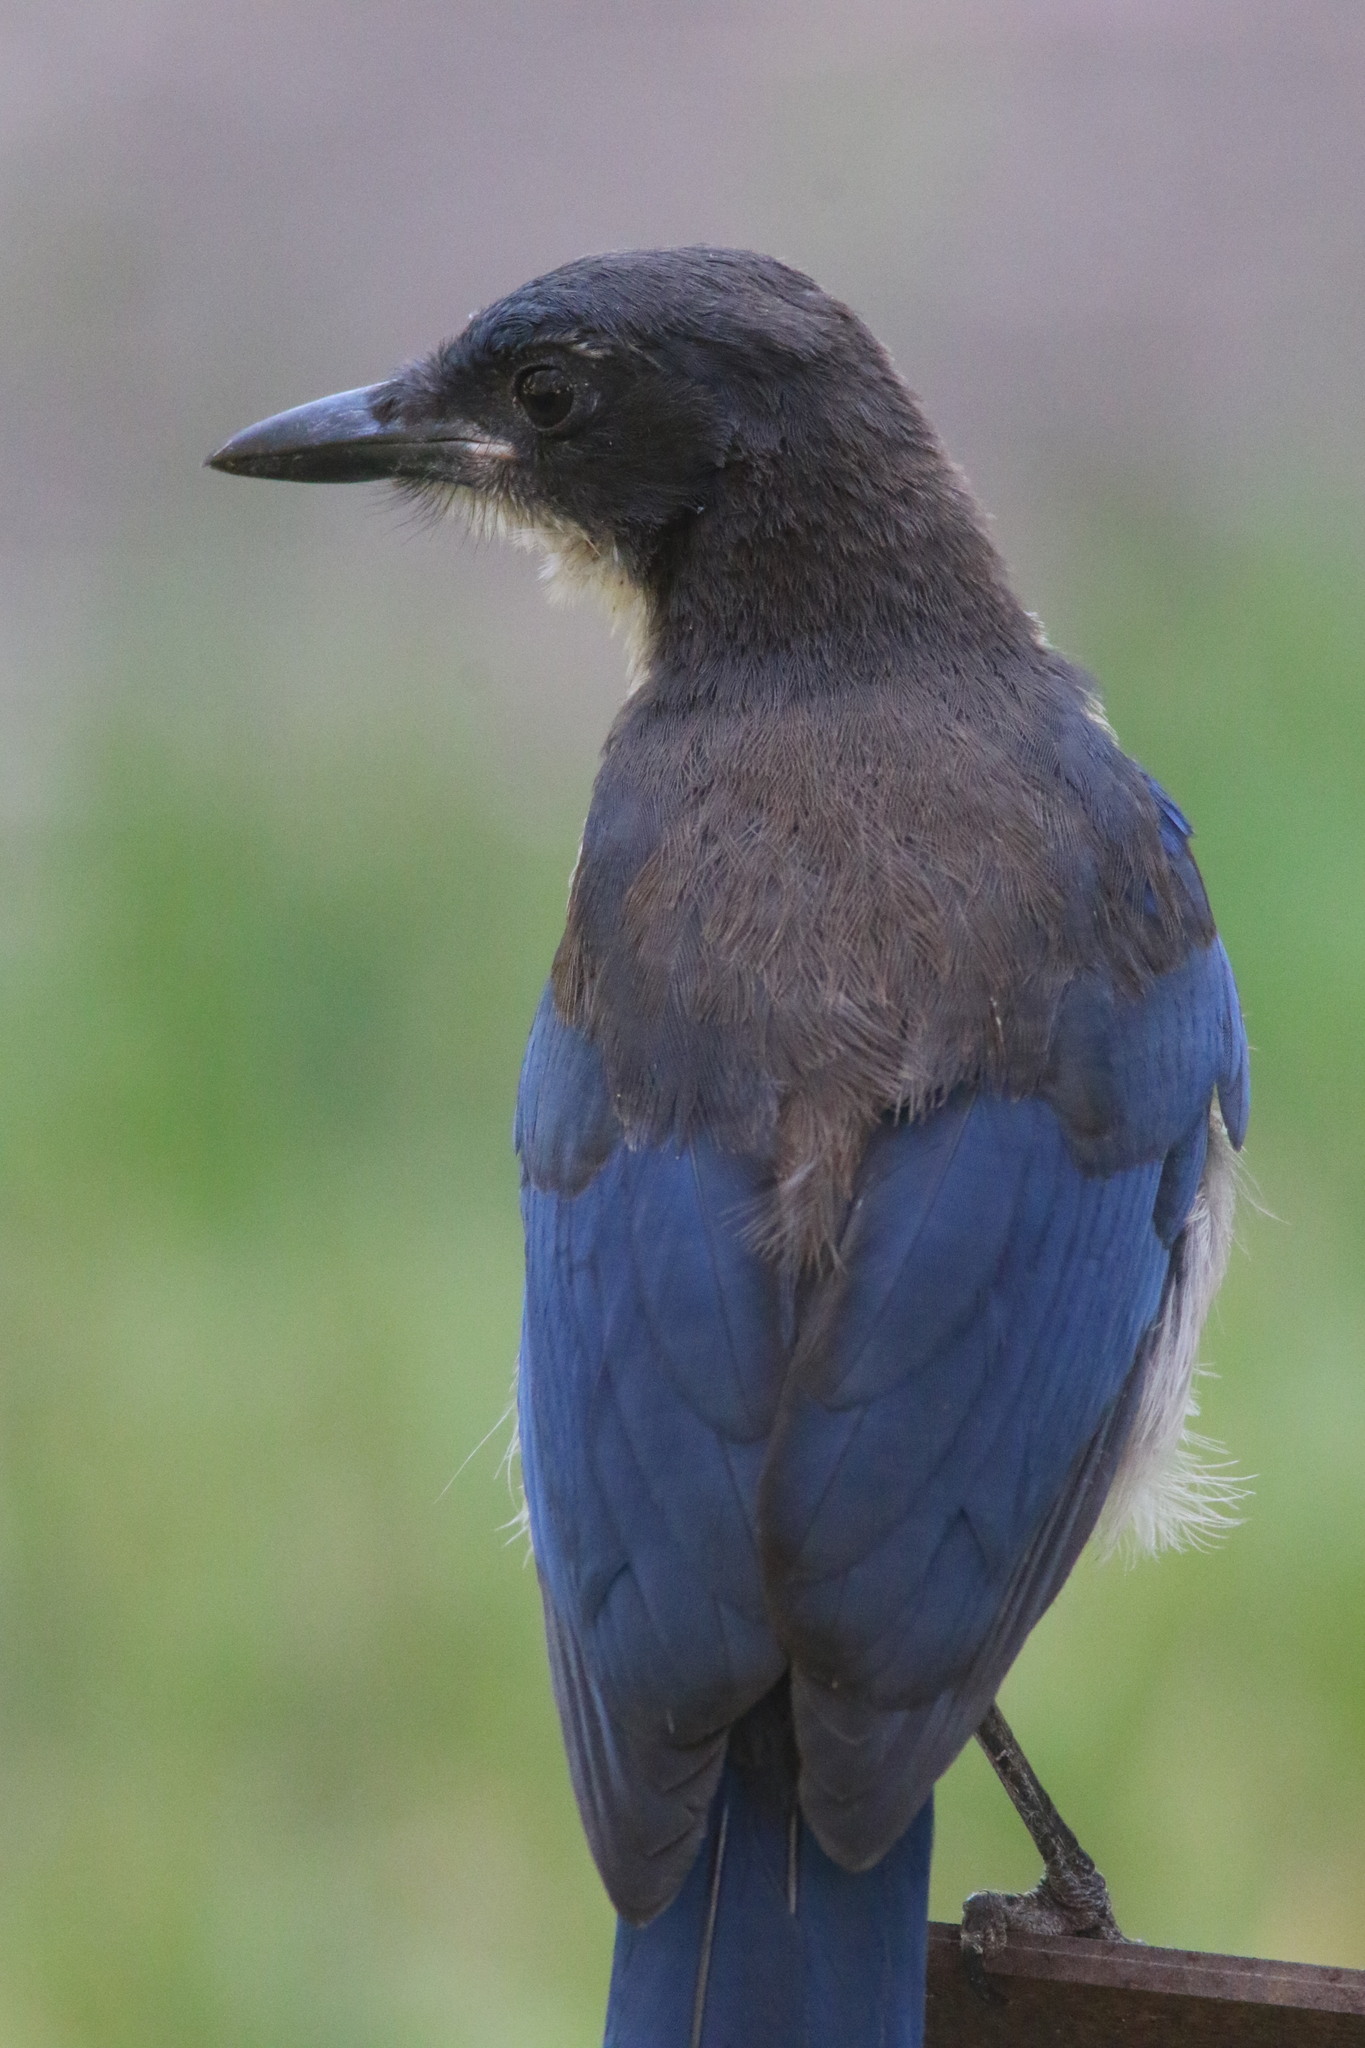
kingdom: Animalia
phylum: Chordata
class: Aves
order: Passeriformes
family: Corvidae
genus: Aphelocoma
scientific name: Aphelocoma insularis
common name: Island scrub-jay
